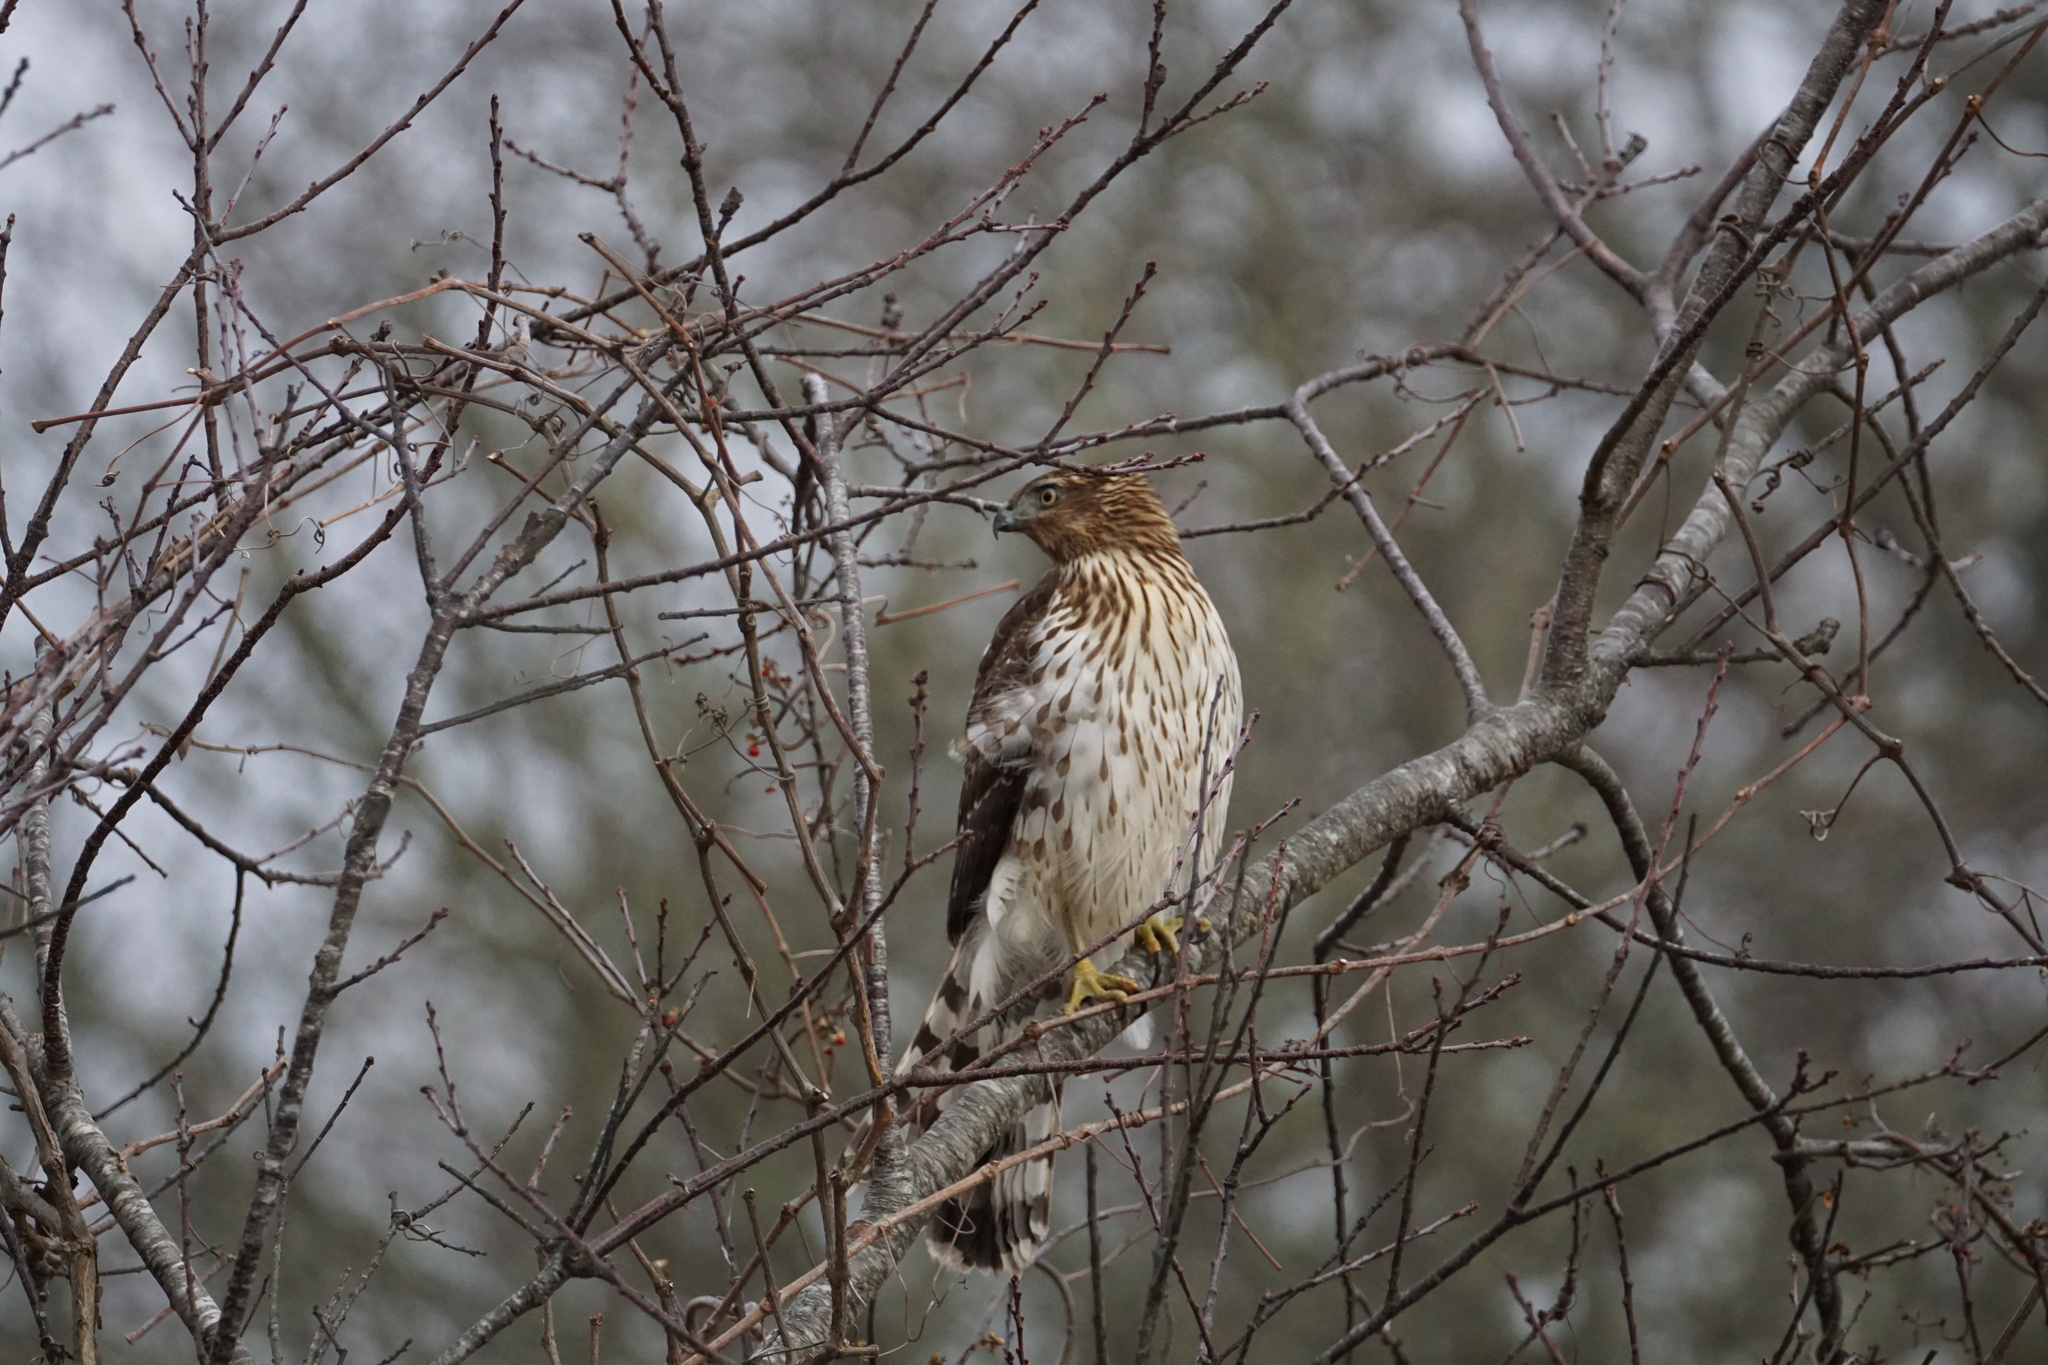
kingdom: Animalia
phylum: Chordata
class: Aves
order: Accipitriformes
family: Accipitridae
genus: Accipiter
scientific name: Accipiter cooperii
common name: Cooper's hawk
